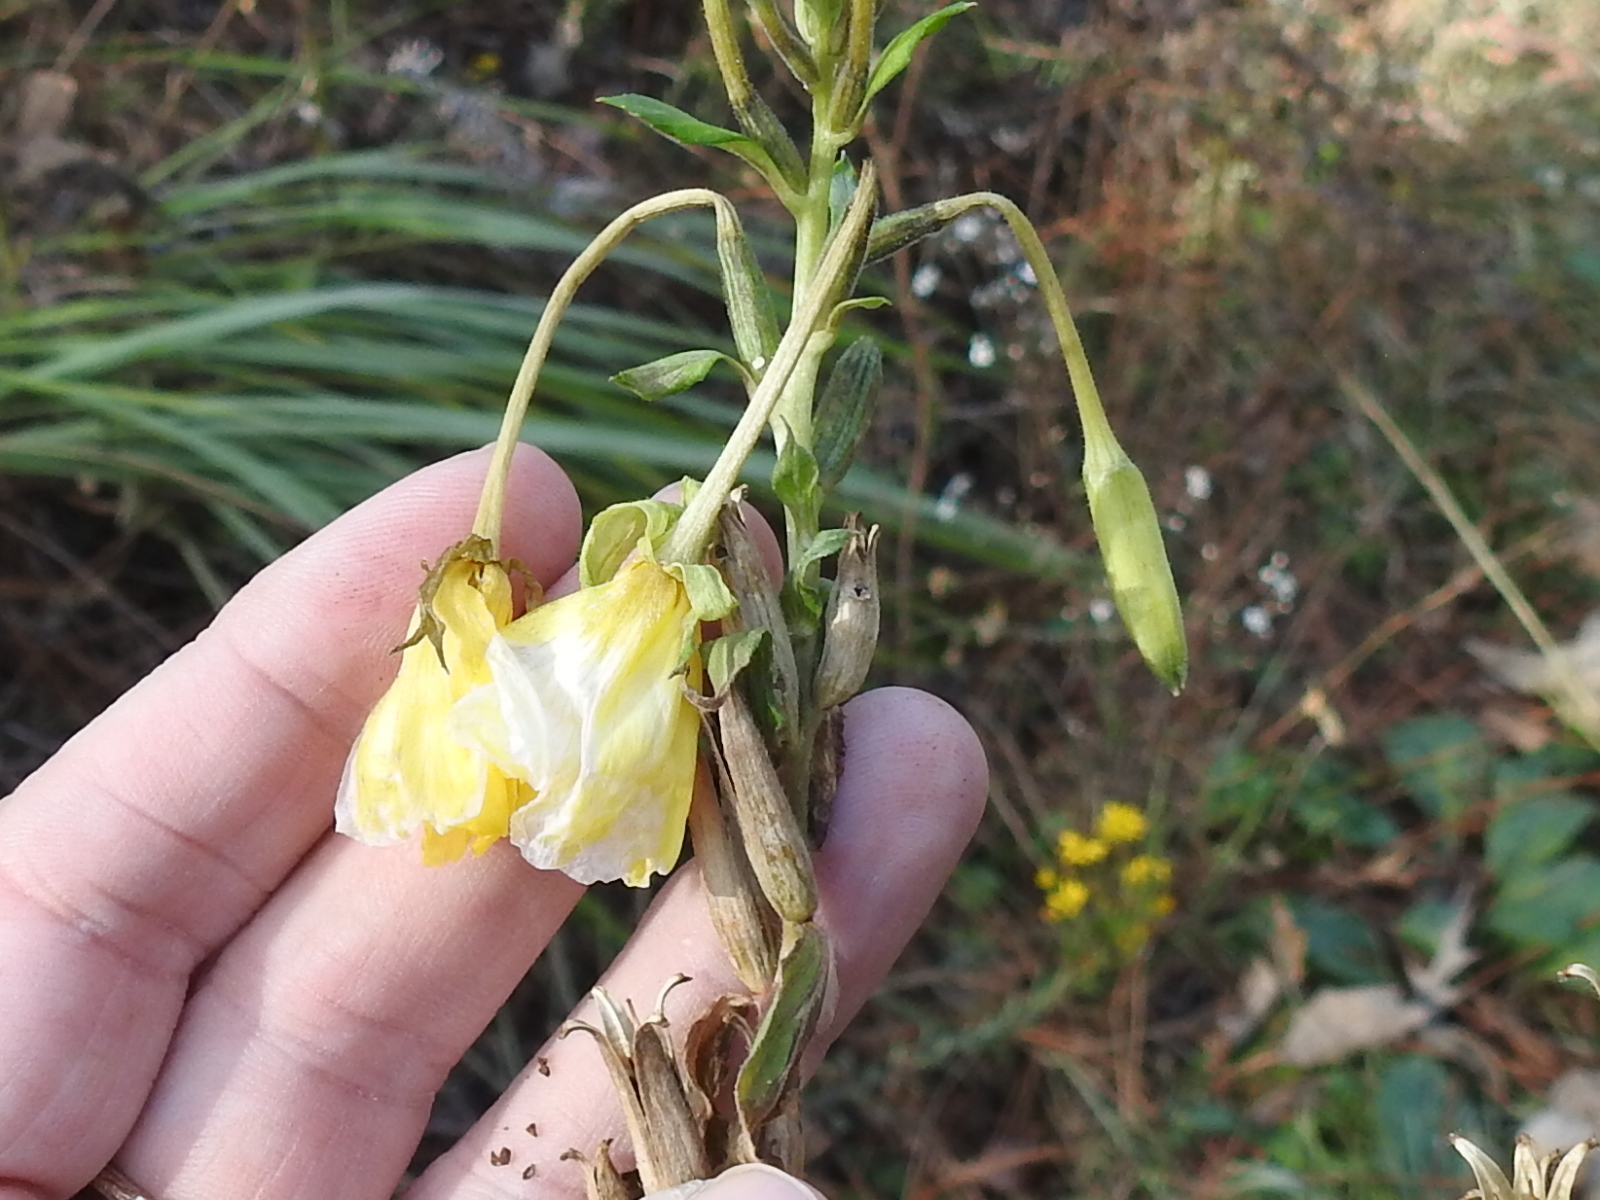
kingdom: Plantae
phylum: Tracheophyta
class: Magnoliopsida
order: Myrtales
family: Onagraceae
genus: Oenothera
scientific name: Oenothera biennis
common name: Common evening-primrose
